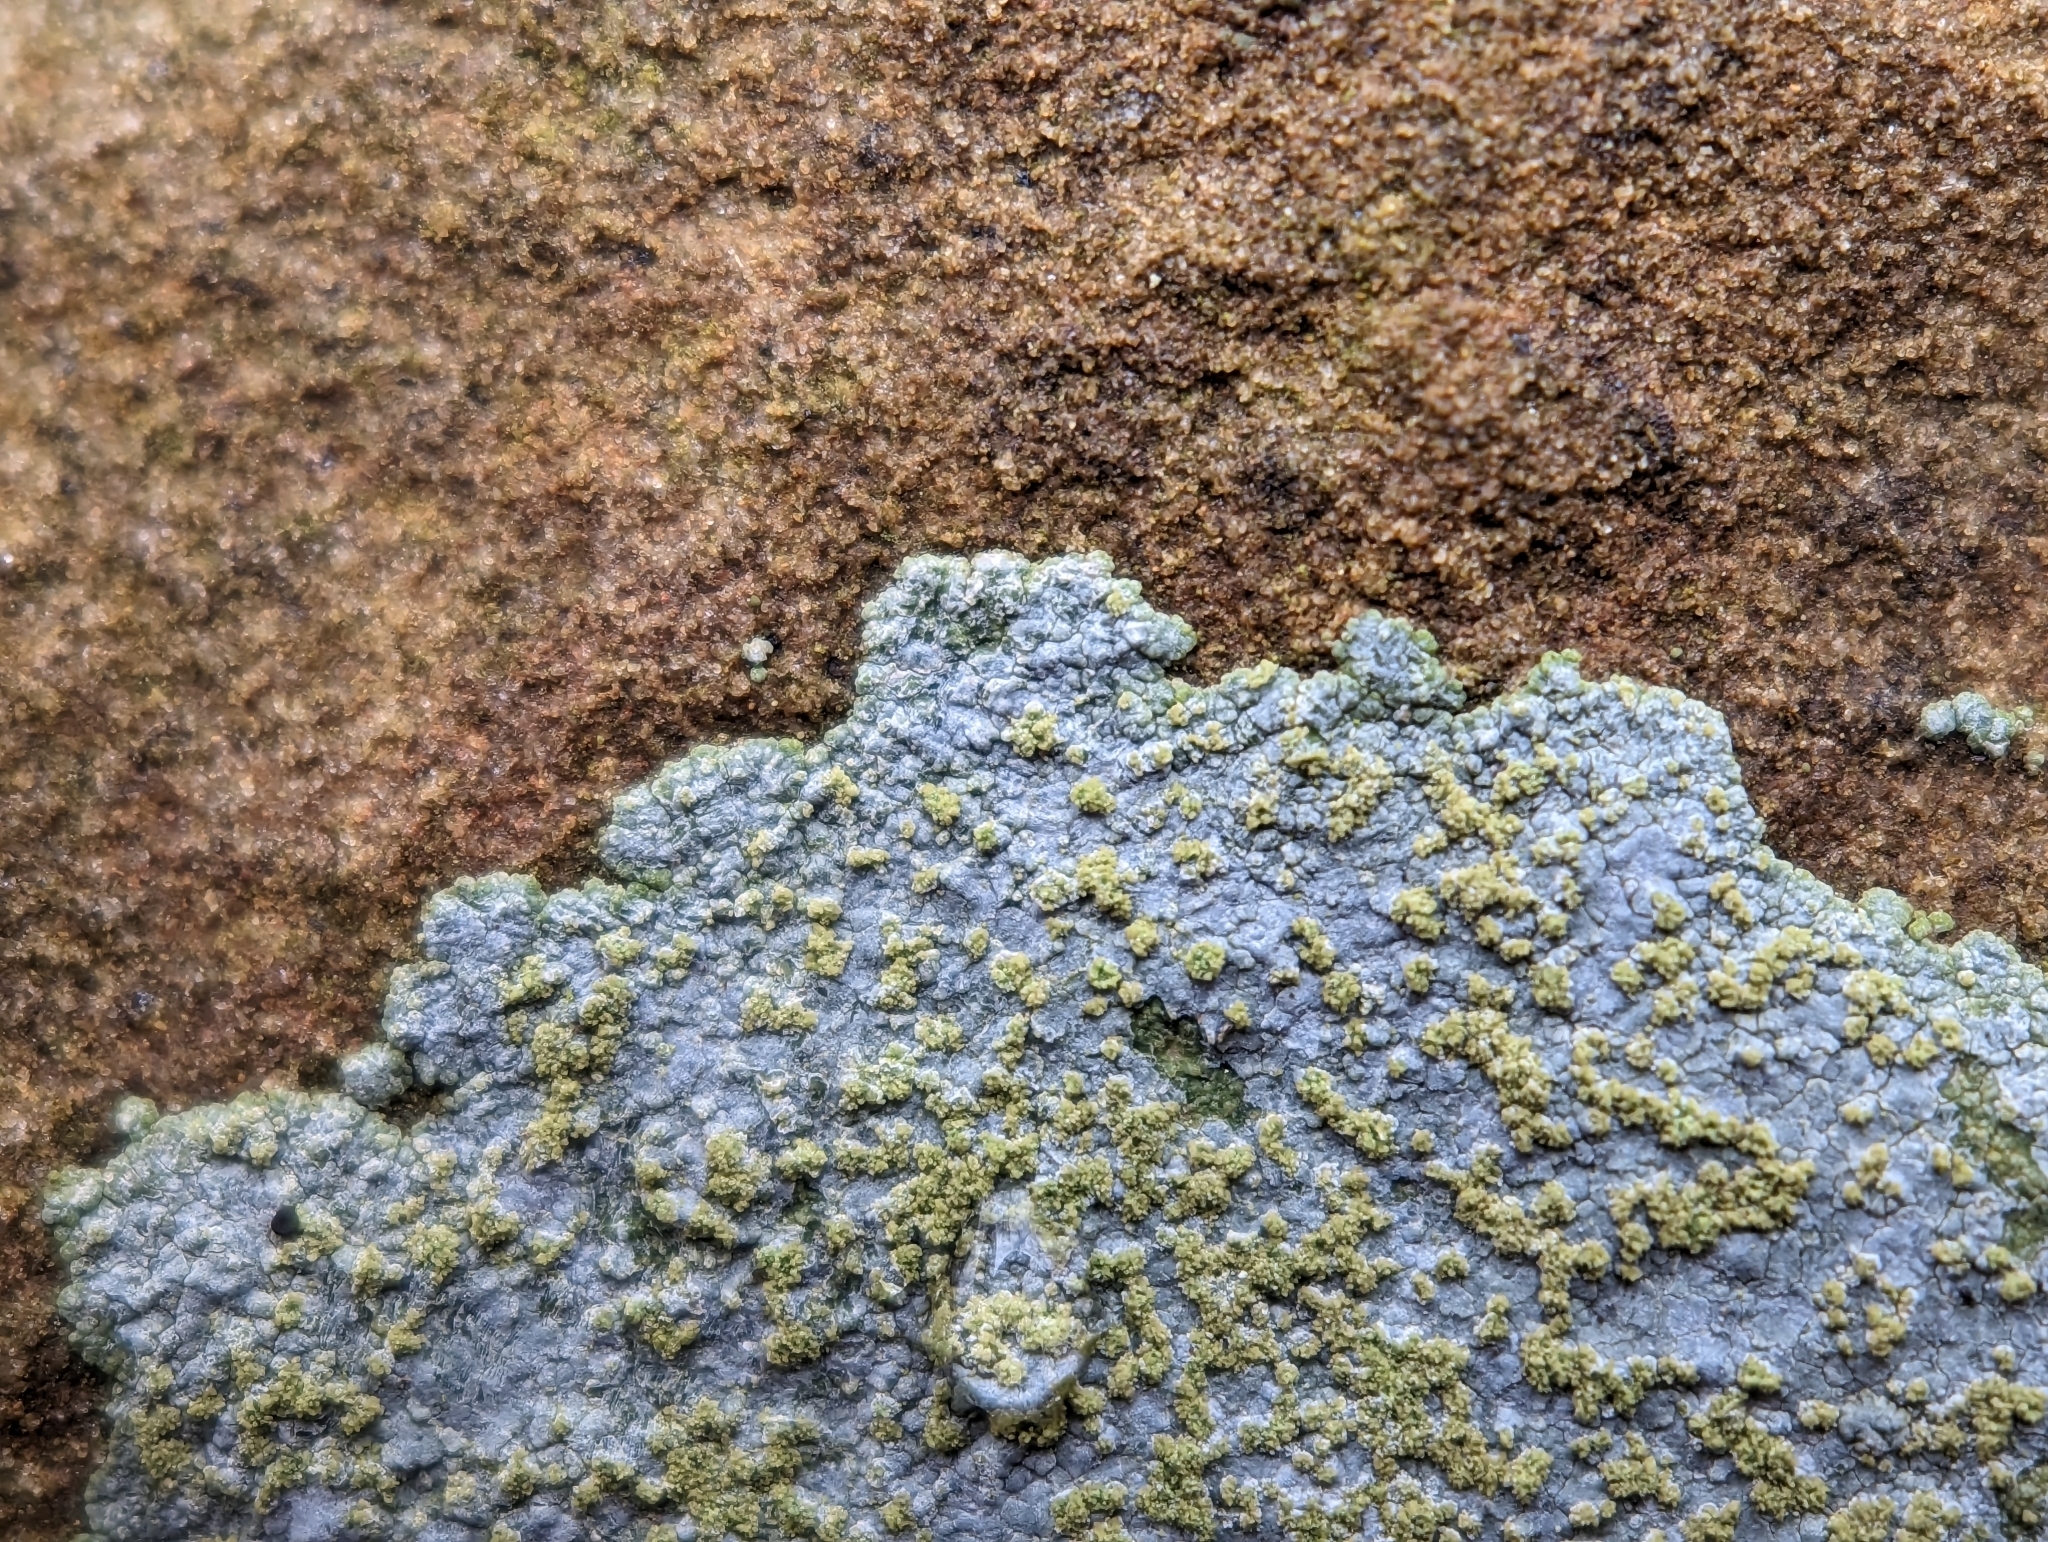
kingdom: Fungi
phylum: Ascomycota
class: Lecanoromycetes
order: Baeomycetales
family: Trapeliaceae
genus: Kleopowiella
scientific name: Kleopowiella placodioides
